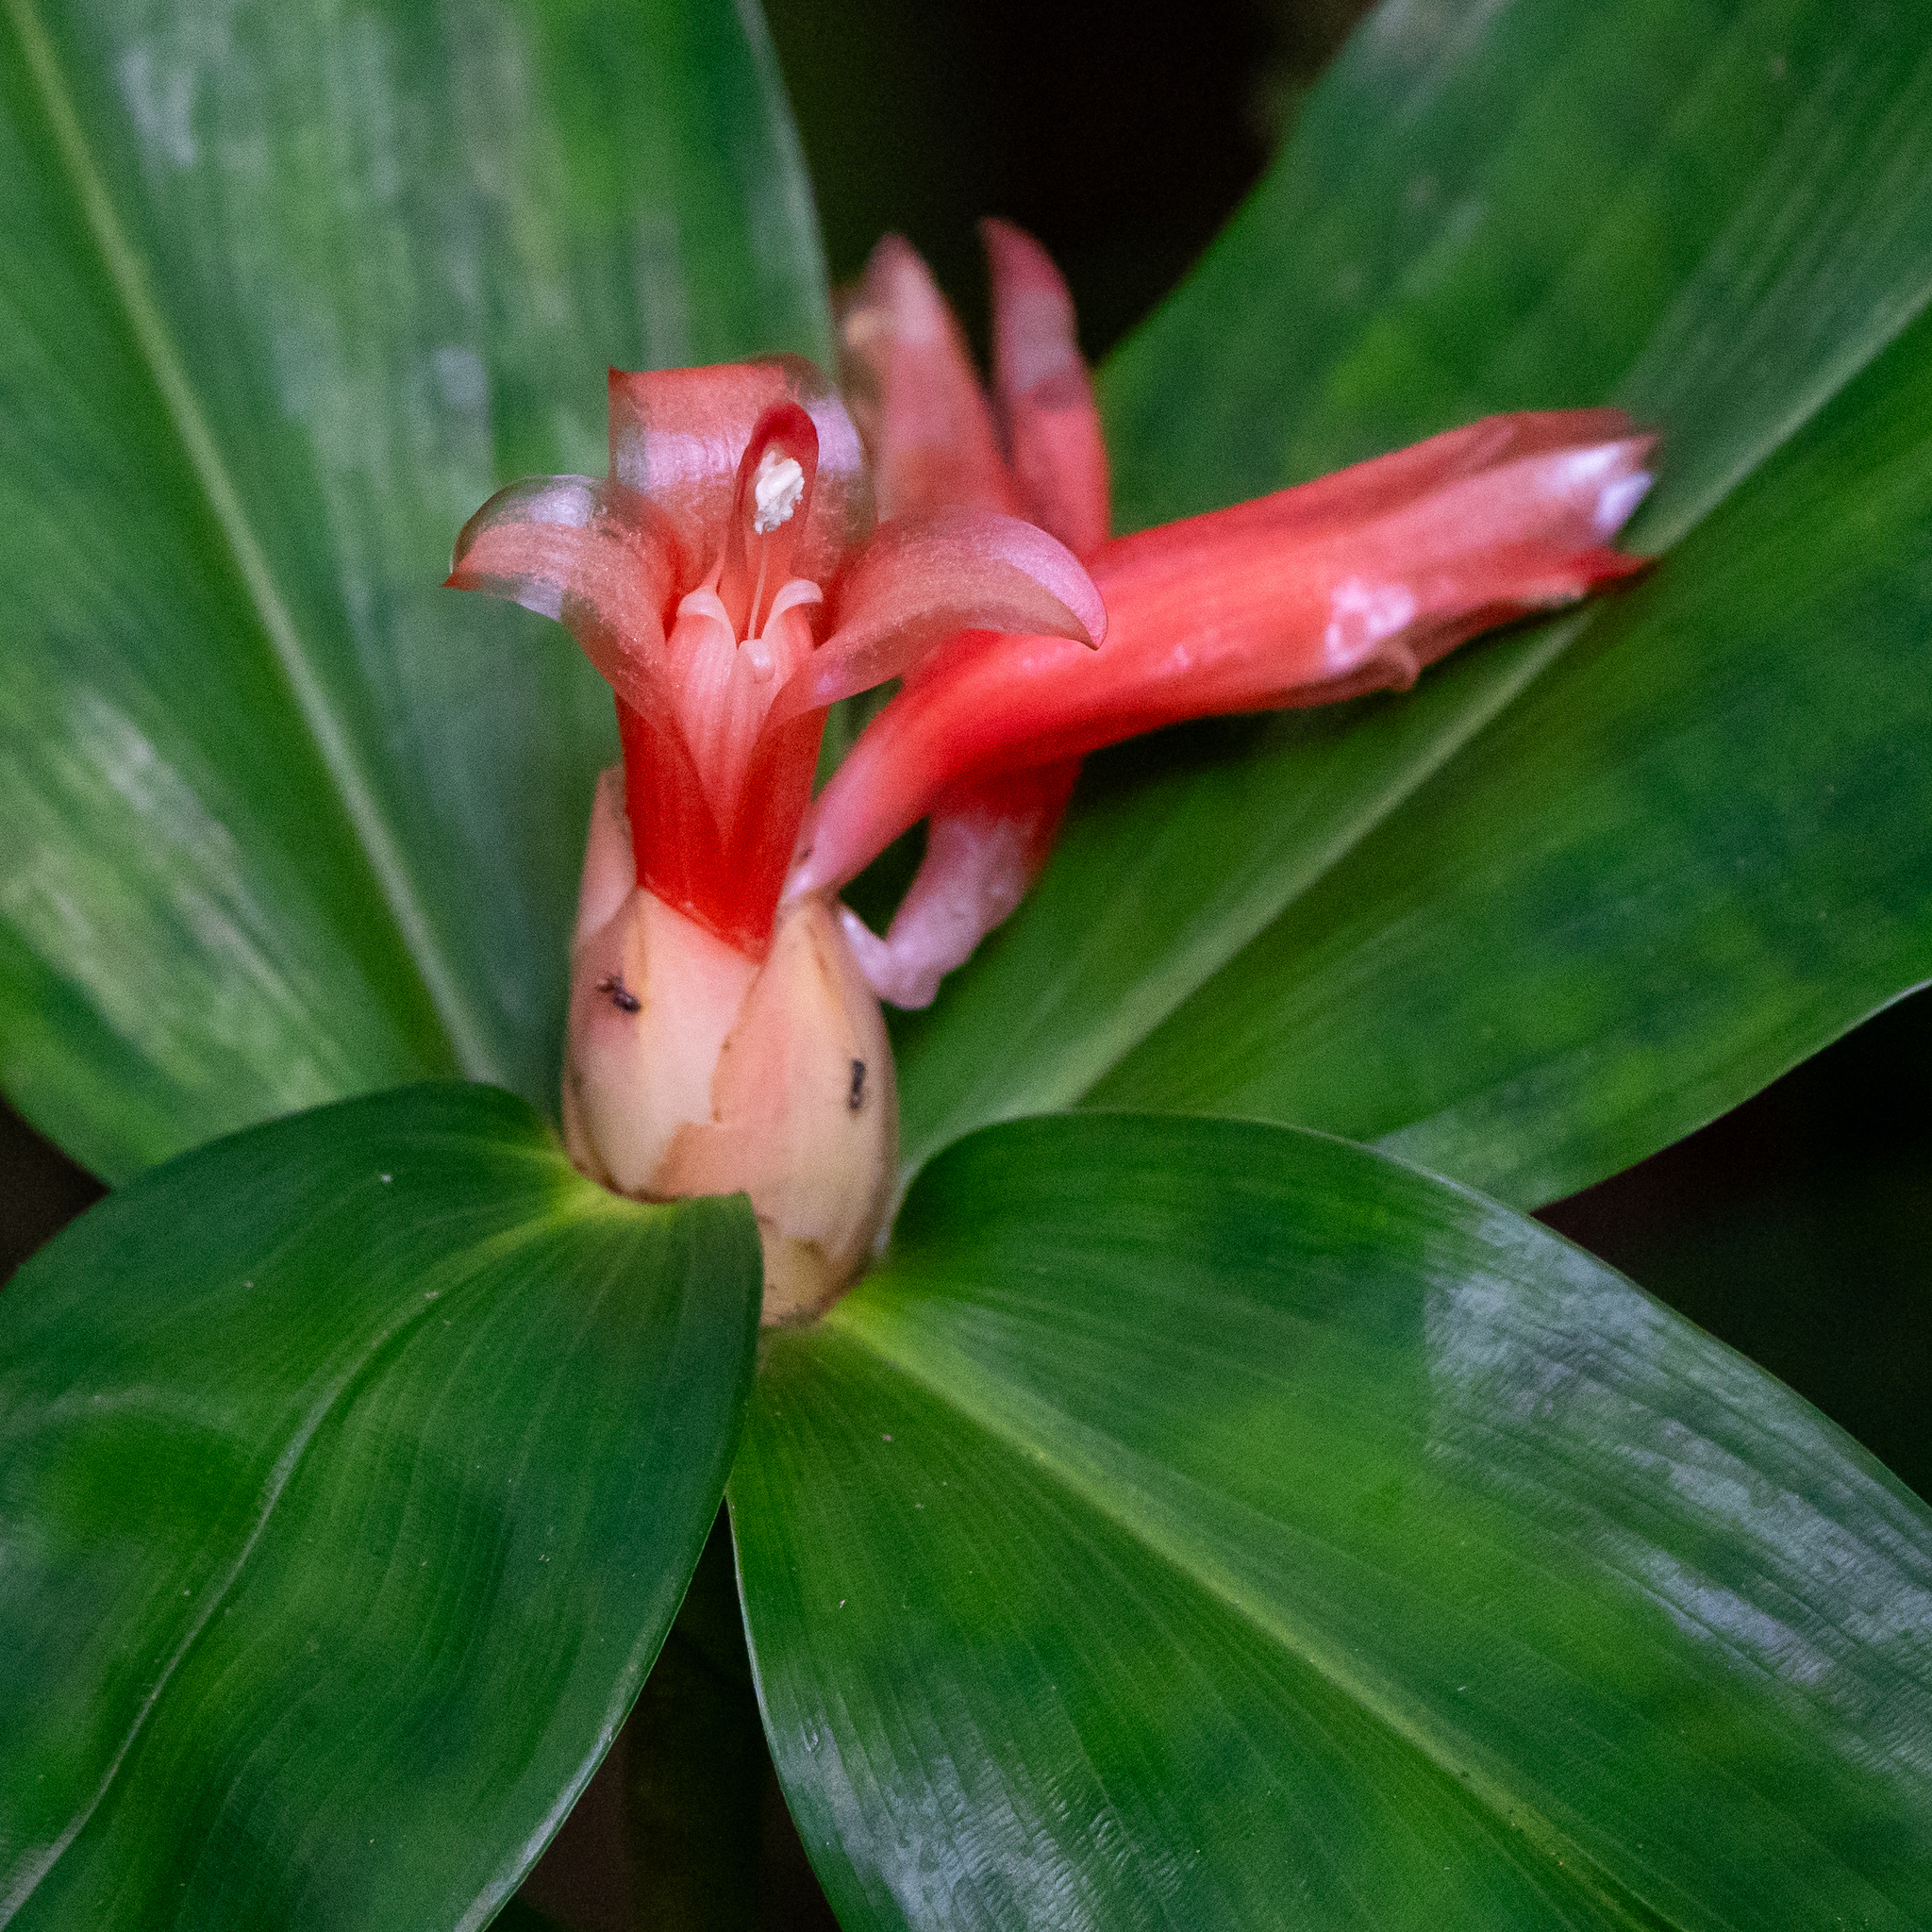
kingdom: Plantae
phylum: Tracheophyta
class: Liliopsida
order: Zingiberales
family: Costaceae
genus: Costus
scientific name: Costus pulverulentus
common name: Spiral ginger
